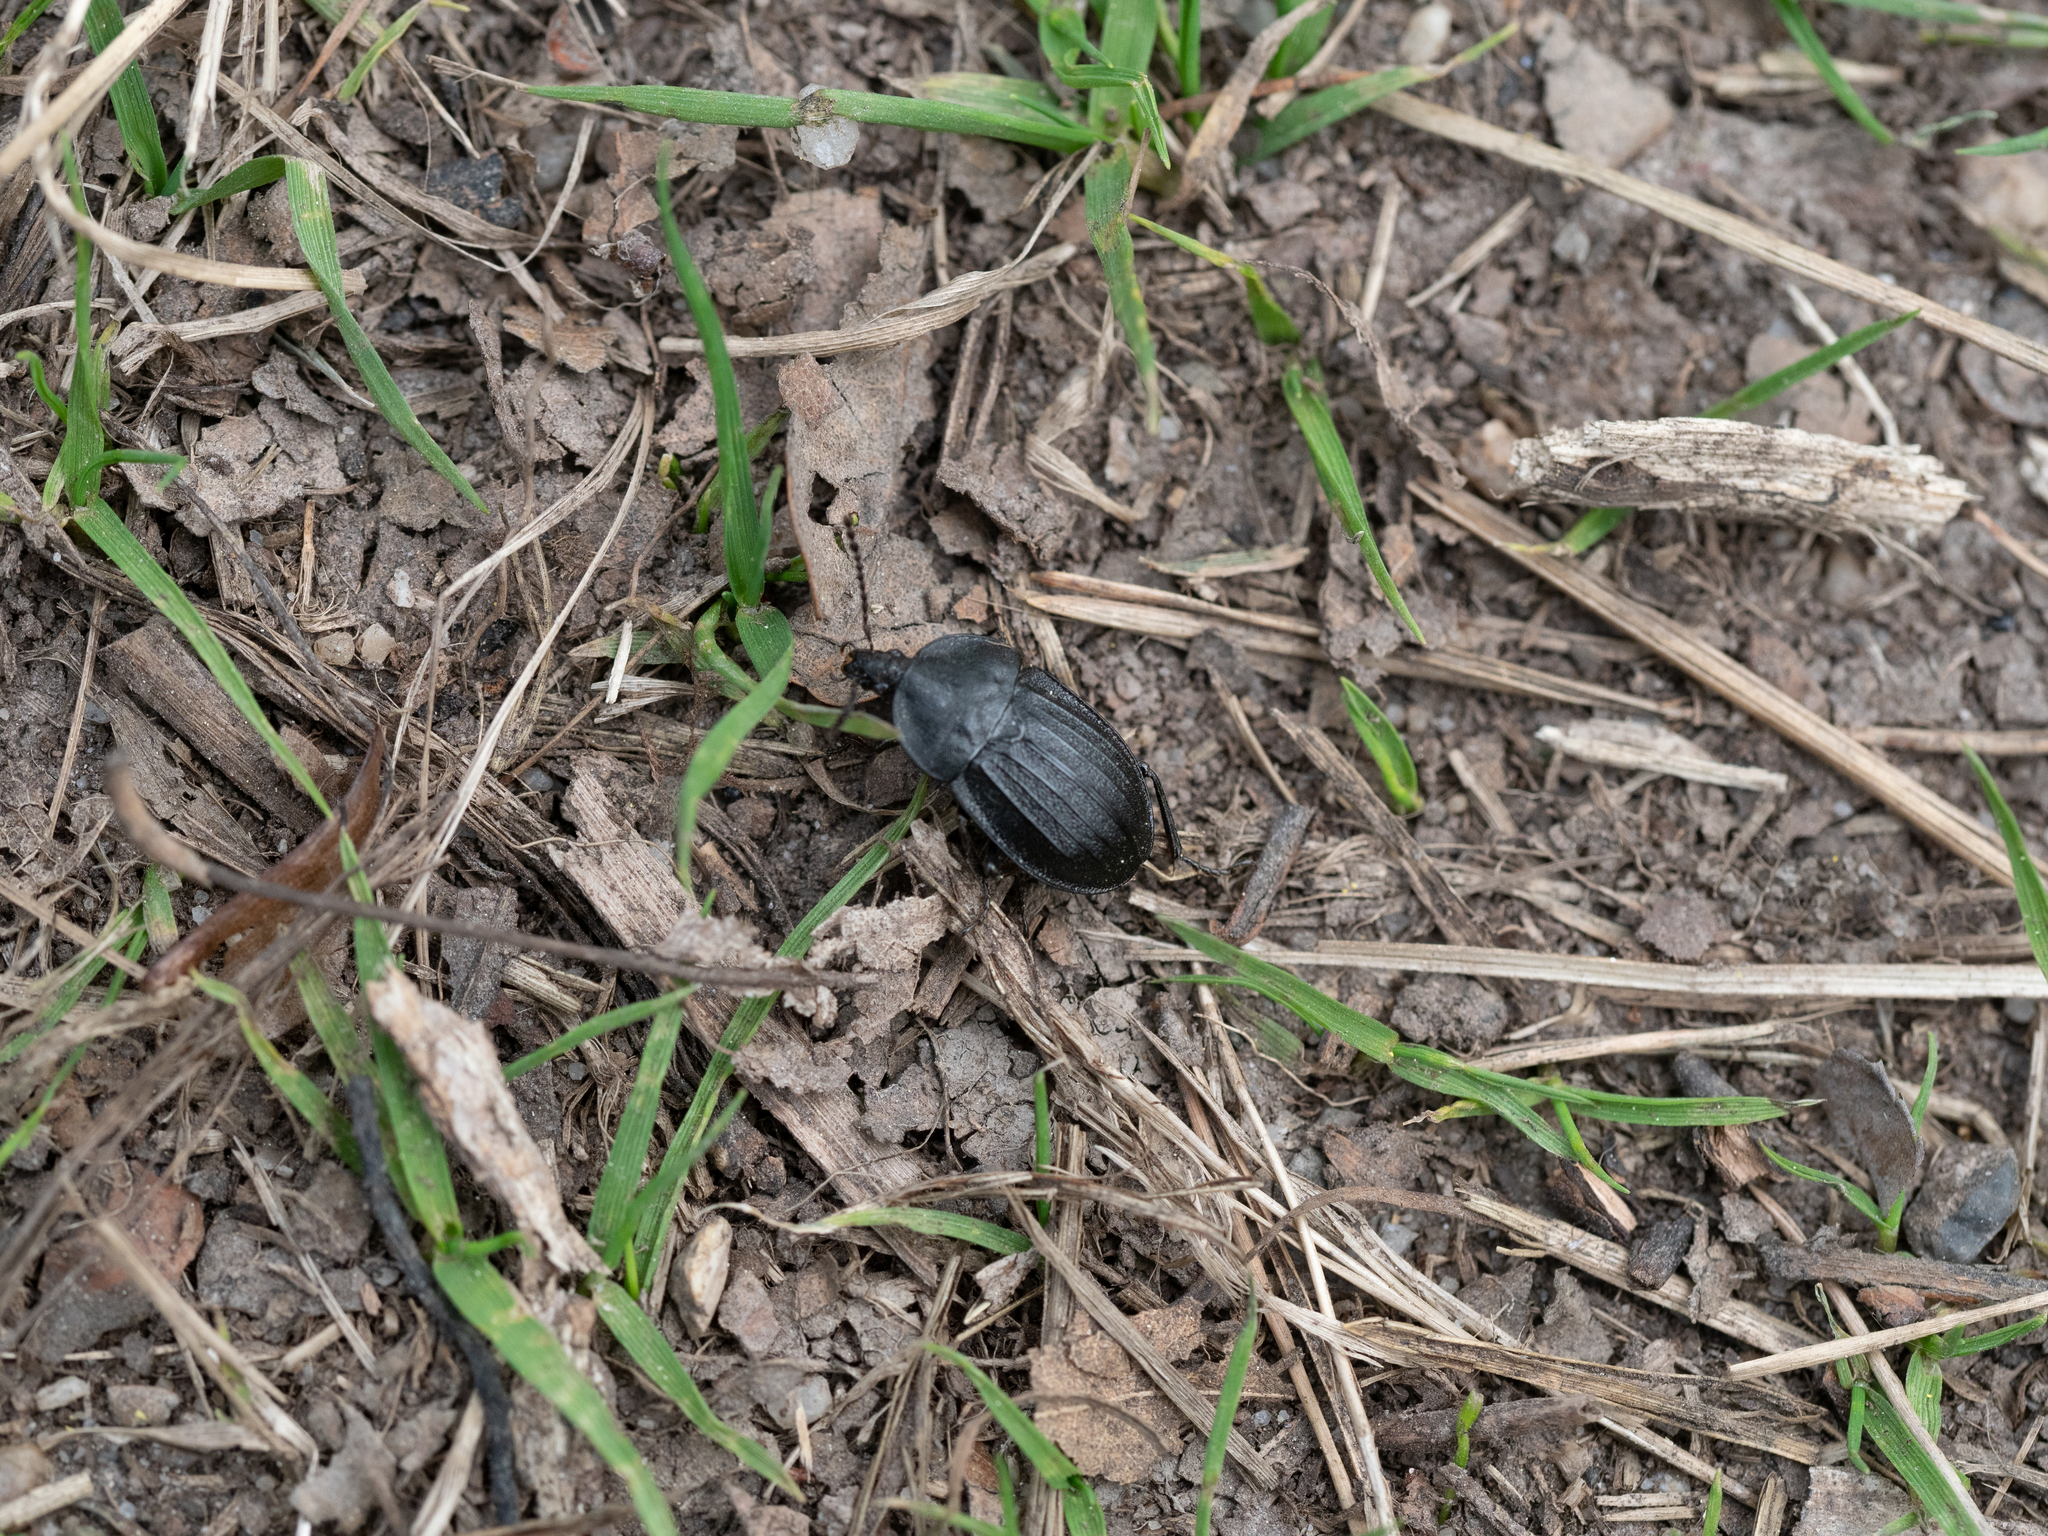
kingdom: Animalia
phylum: Arthropoda
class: Insecta
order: Coleoptera
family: Staphylinidae
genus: Silpha
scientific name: Silpha atrata
